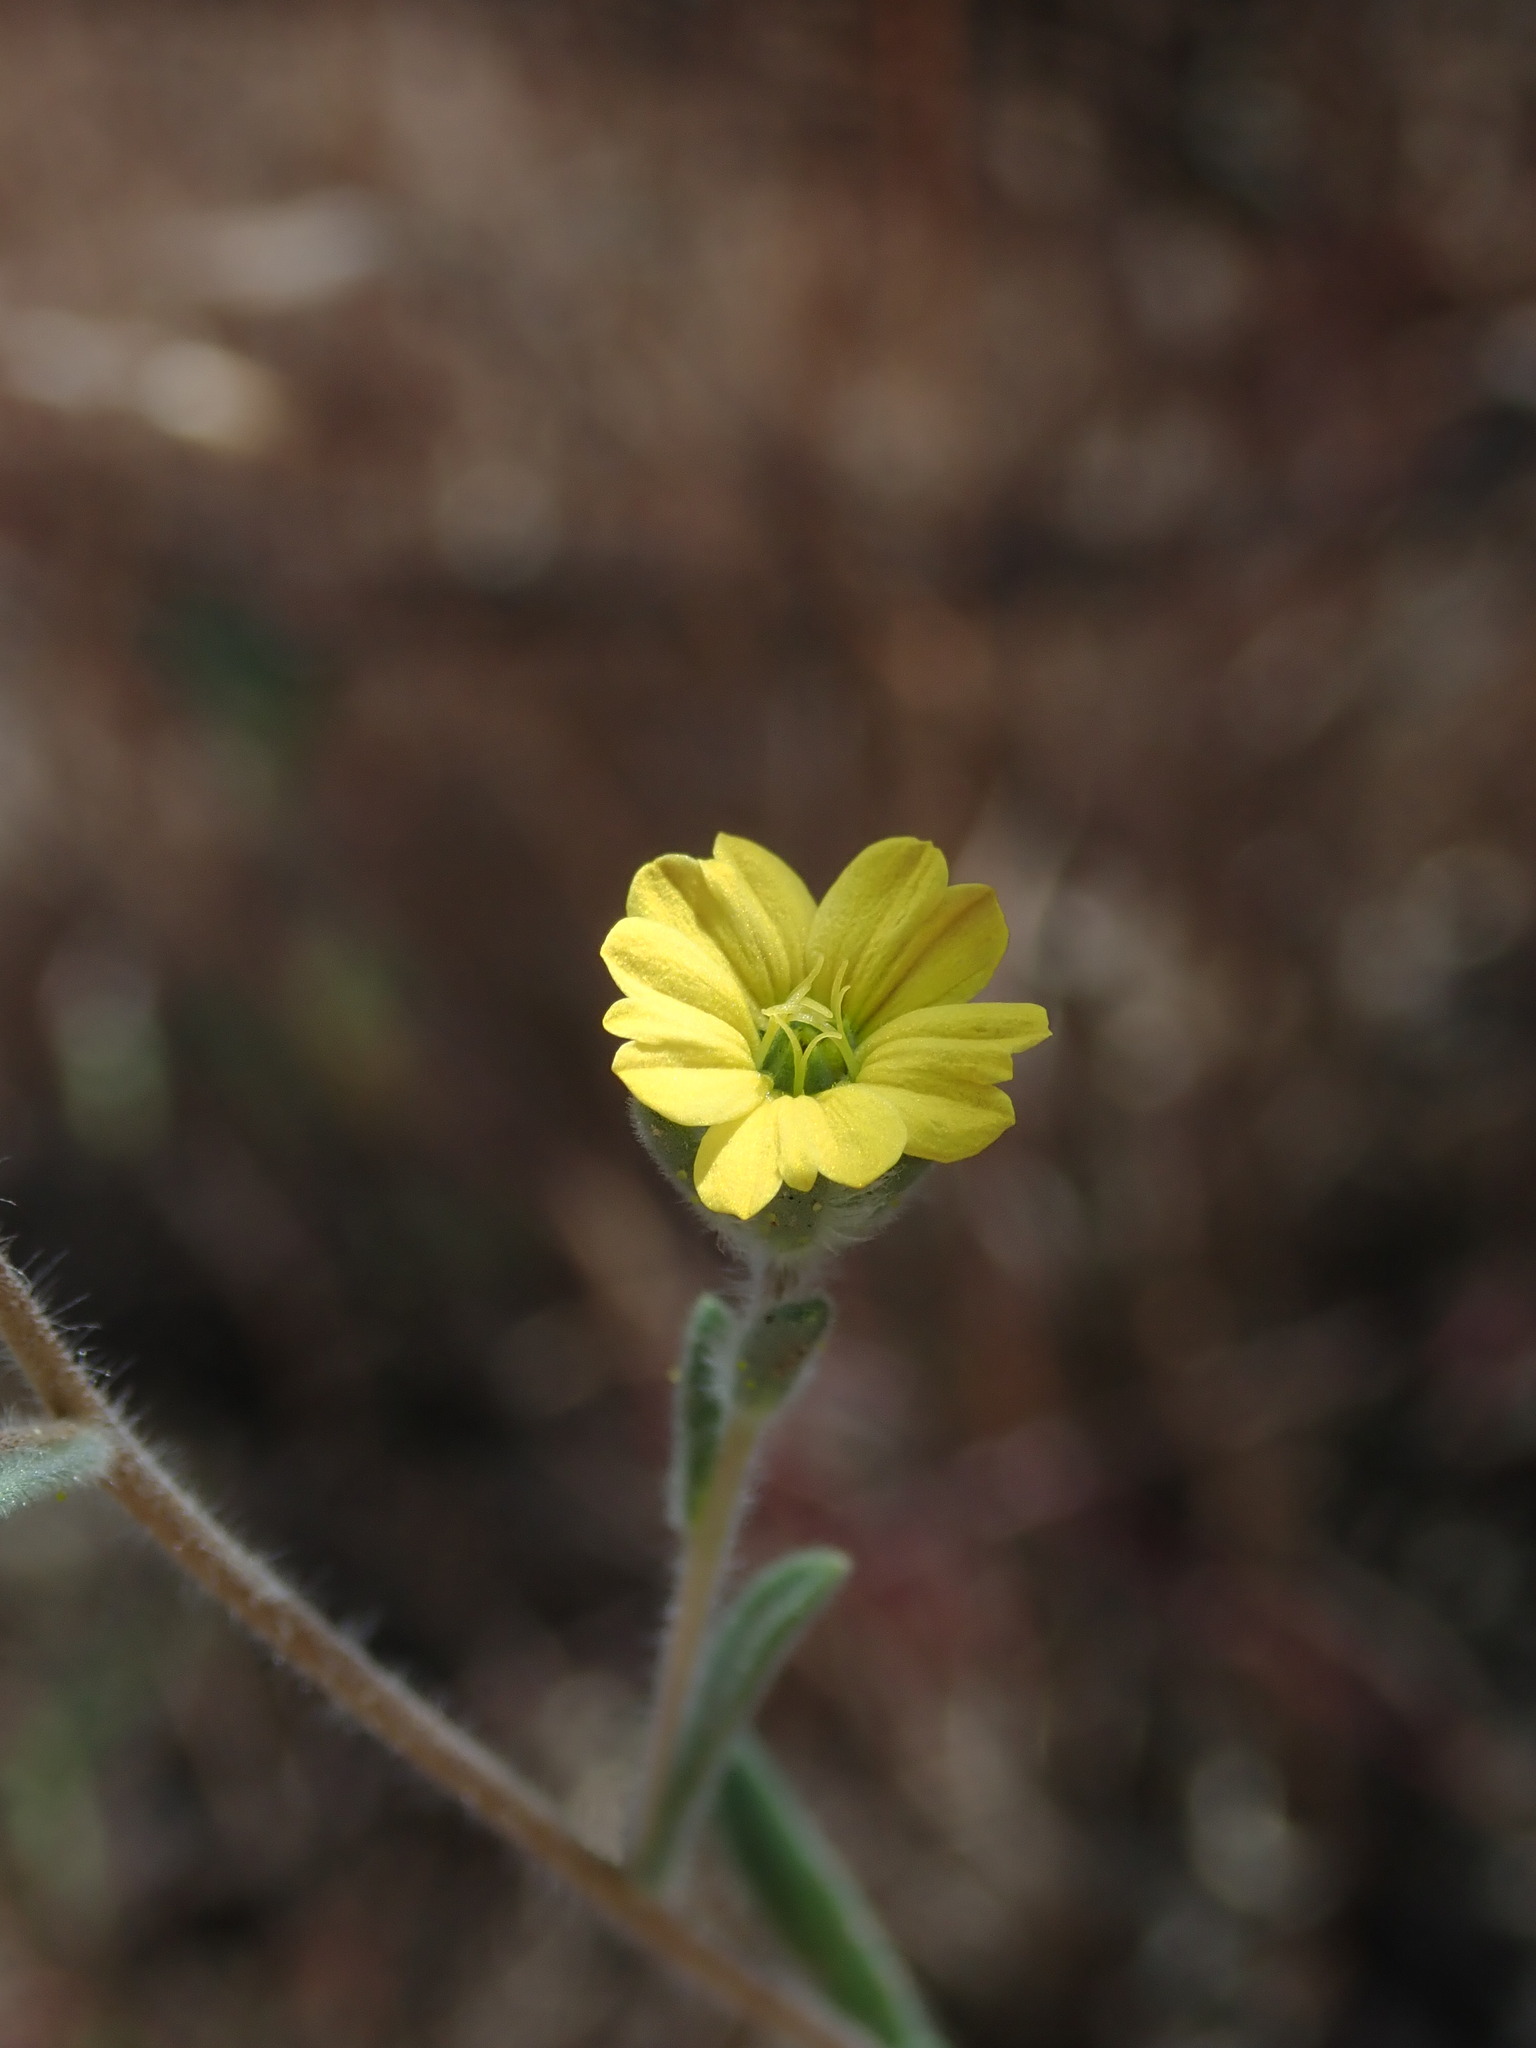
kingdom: Plantae
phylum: Tracheophyta
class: Magnoliopsida
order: Asterales
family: Asteraceae
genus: Lagophylla
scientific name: Lagophylla ramosissima
